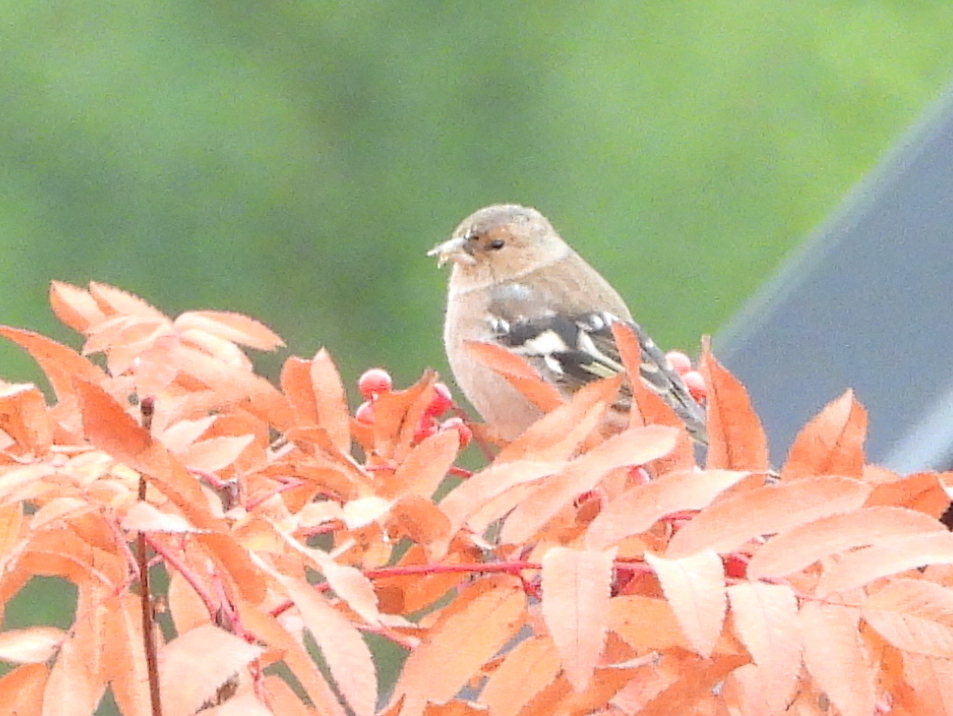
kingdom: Animalia
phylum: Chordata
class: Aves
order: Passeriformes
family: Fringillidae
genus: Fringilla
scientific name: Fringilla coelebs
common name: Common chaffinch
